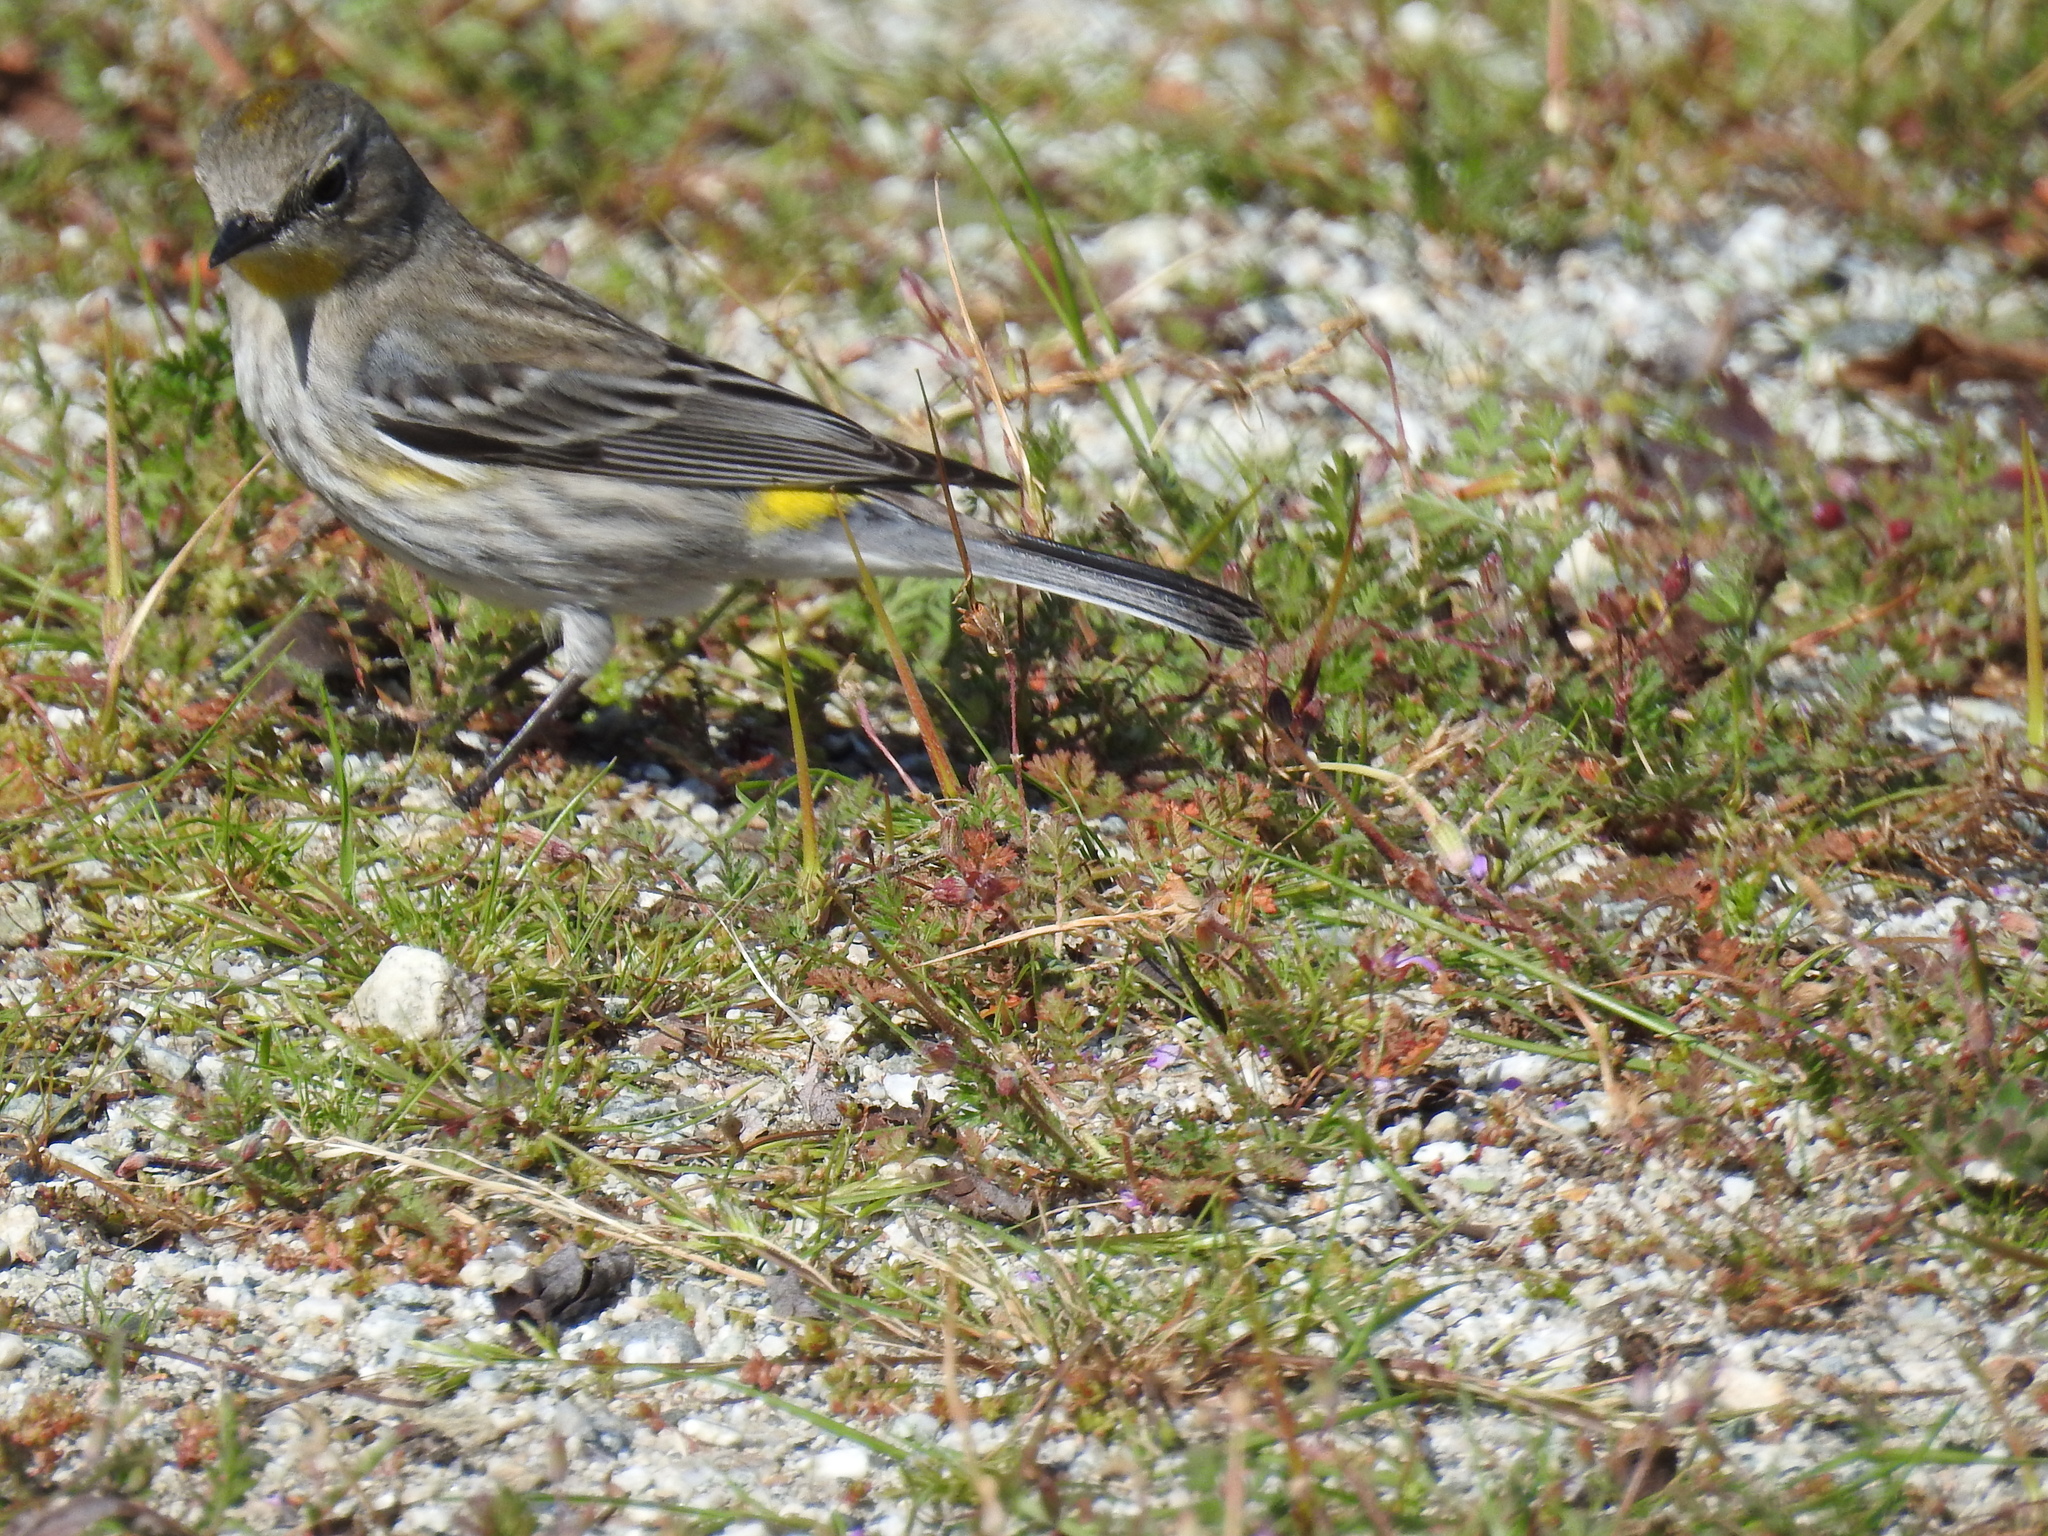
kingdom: Animalia
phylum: Chordata
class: Aves
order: Passeriformes
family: Parulidae
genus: Setophaga
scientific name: Setophaga coronata
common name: Myrtle warbler
